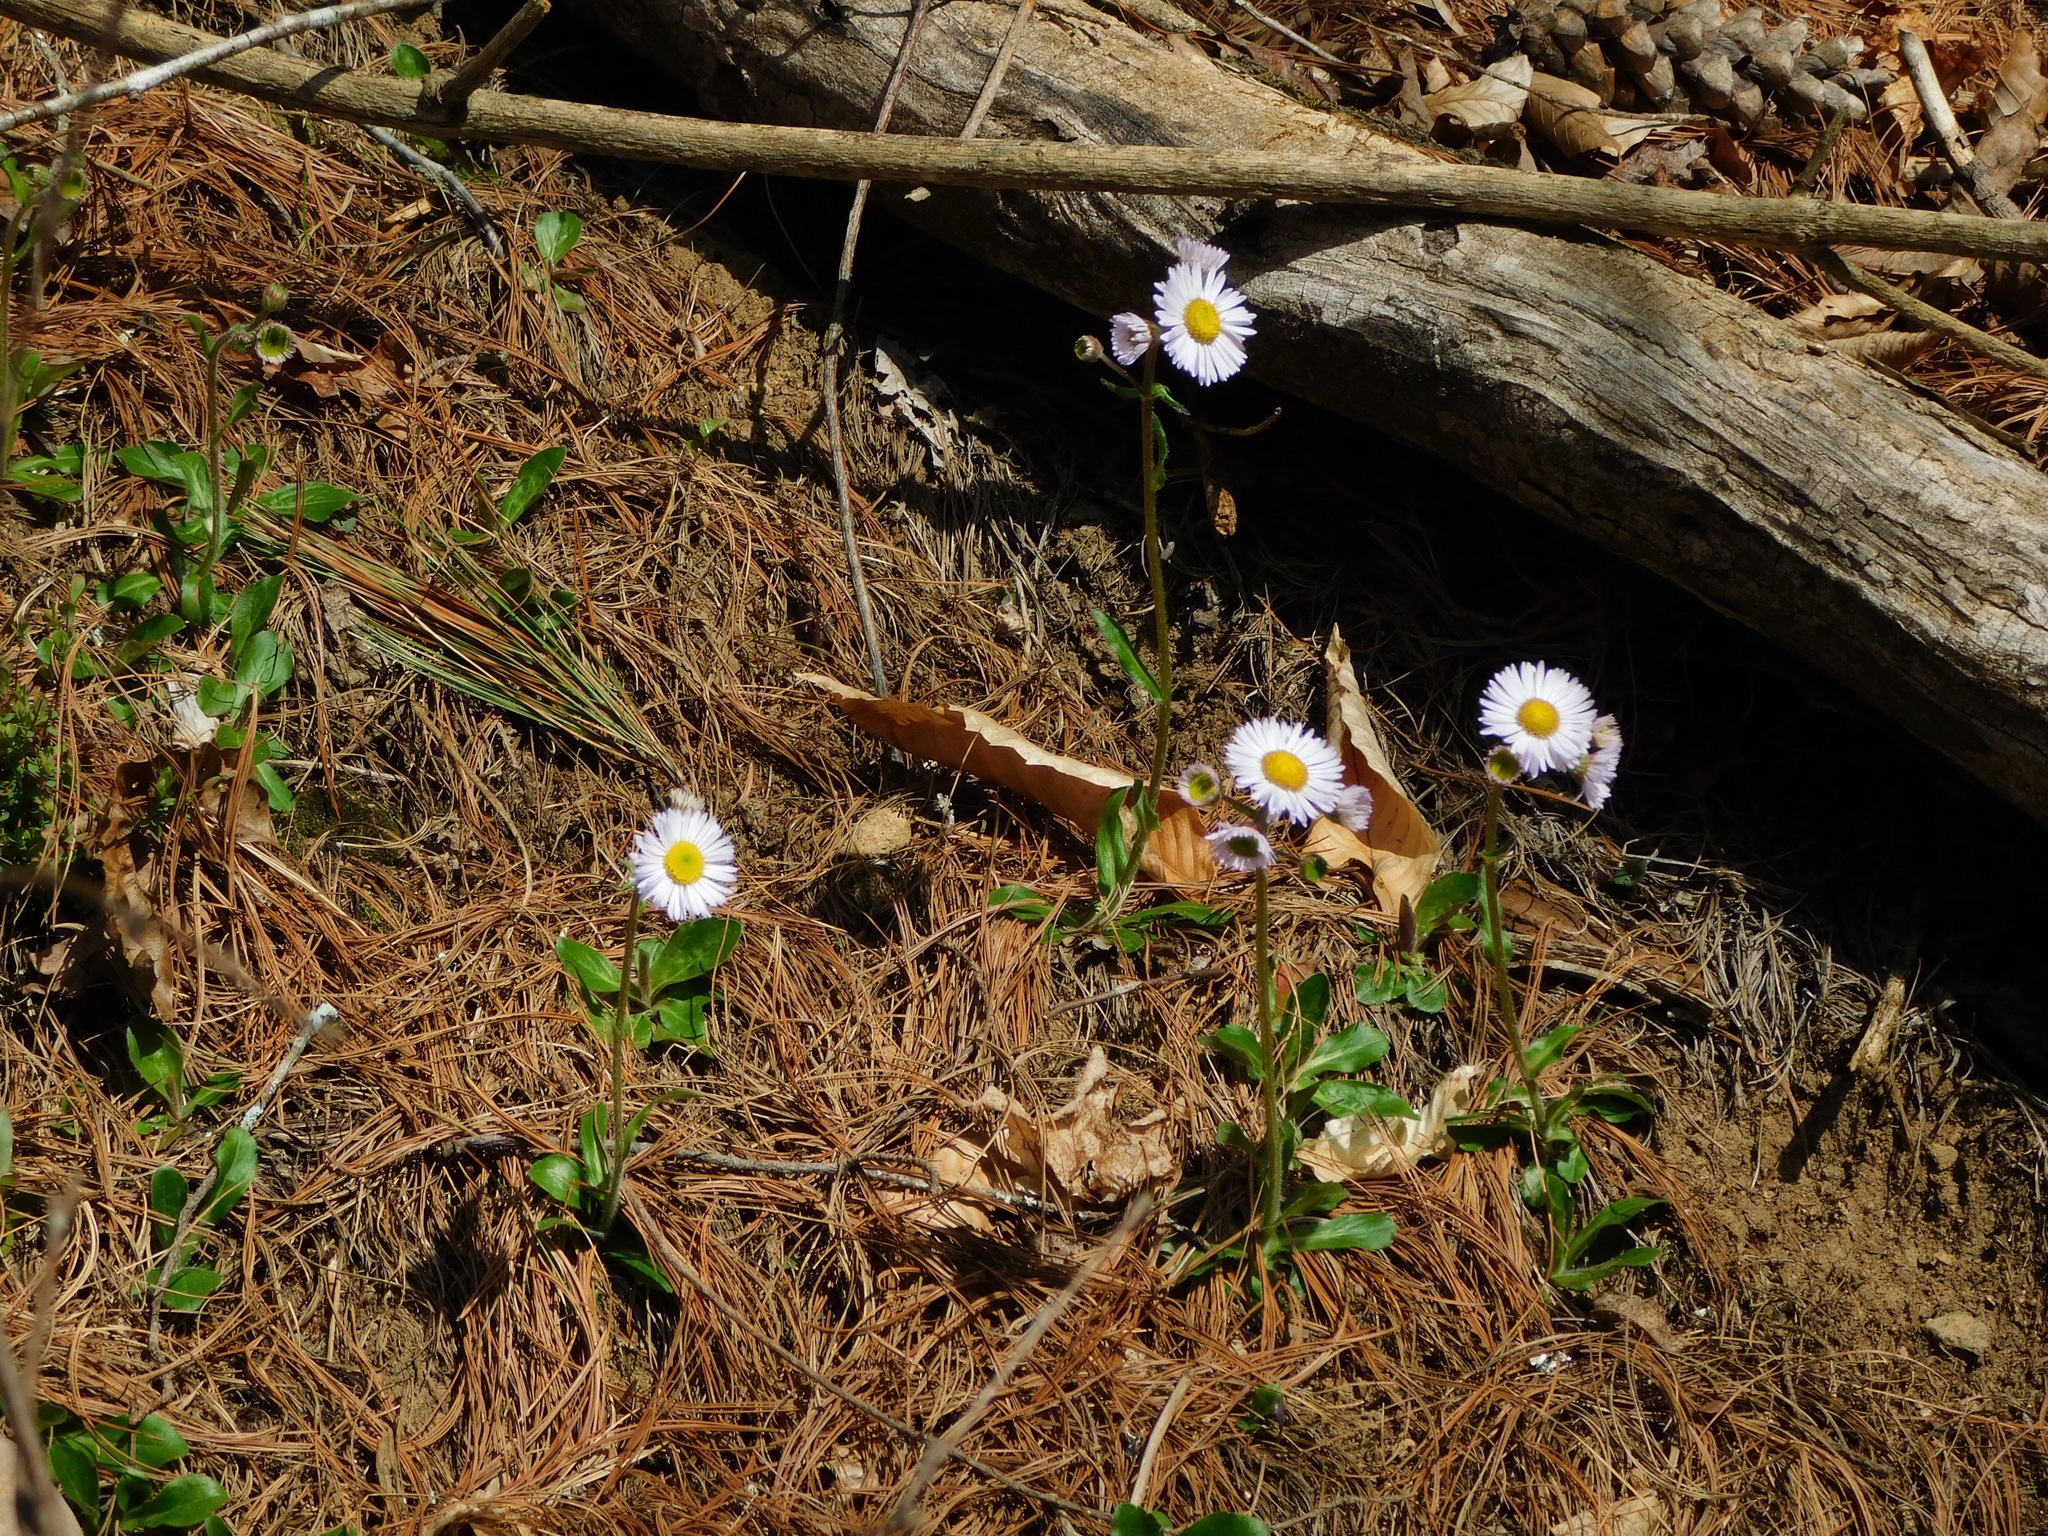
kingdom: Plantae
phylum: Tracheophyta
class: Magnoliopsida
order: Asterales
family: Asteraceae
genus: Erigeron
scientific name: Erigeron pulchellus
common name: Hairy fleabane
